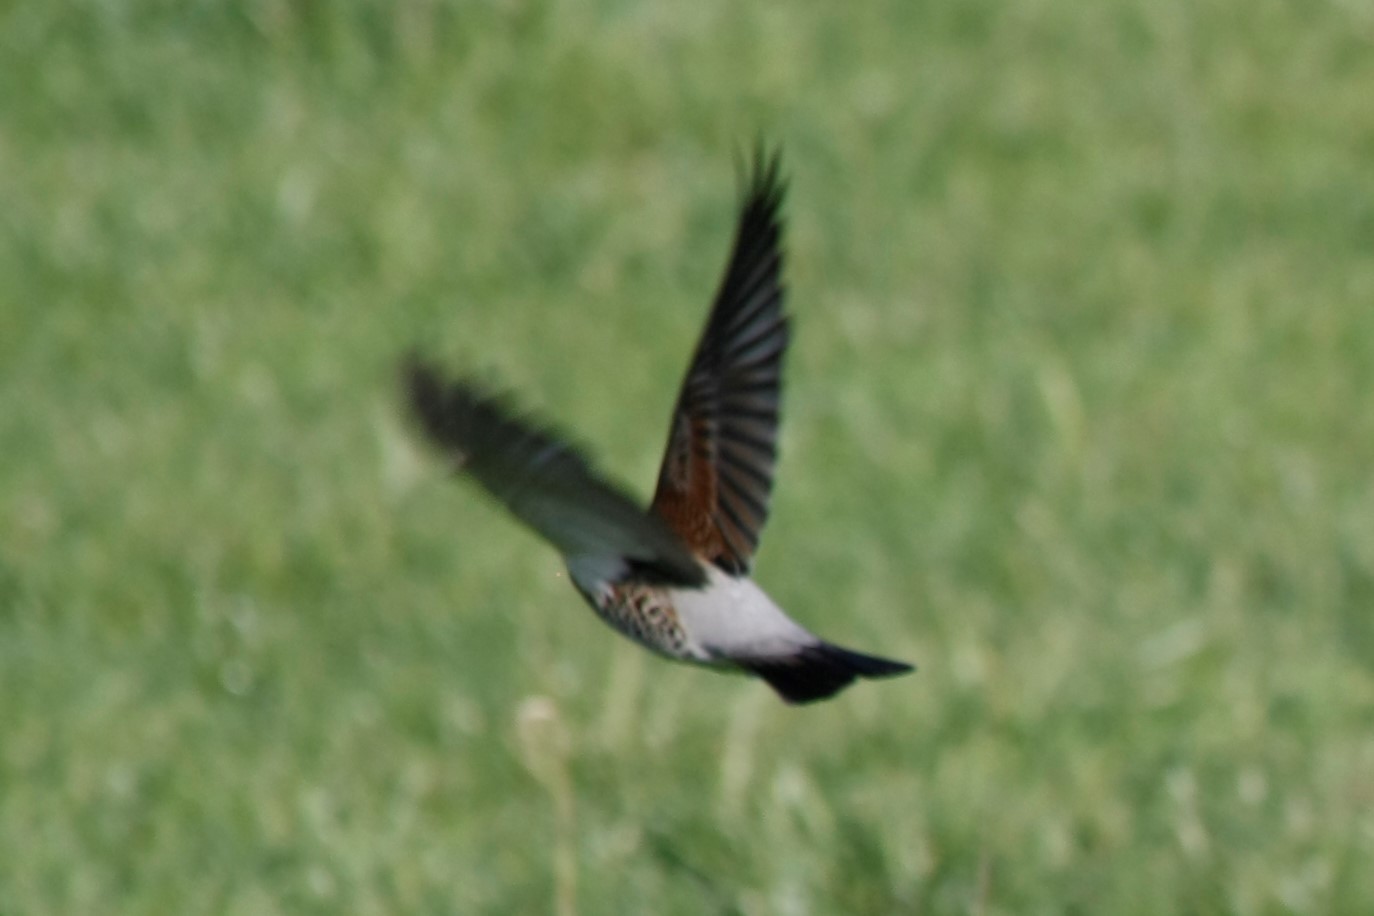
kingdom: Animalia
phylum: Chordata
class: Aves
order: Passeriformes
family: Turdidae
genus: Turdus
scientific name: Turdus pilaris
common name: Fieldfare
